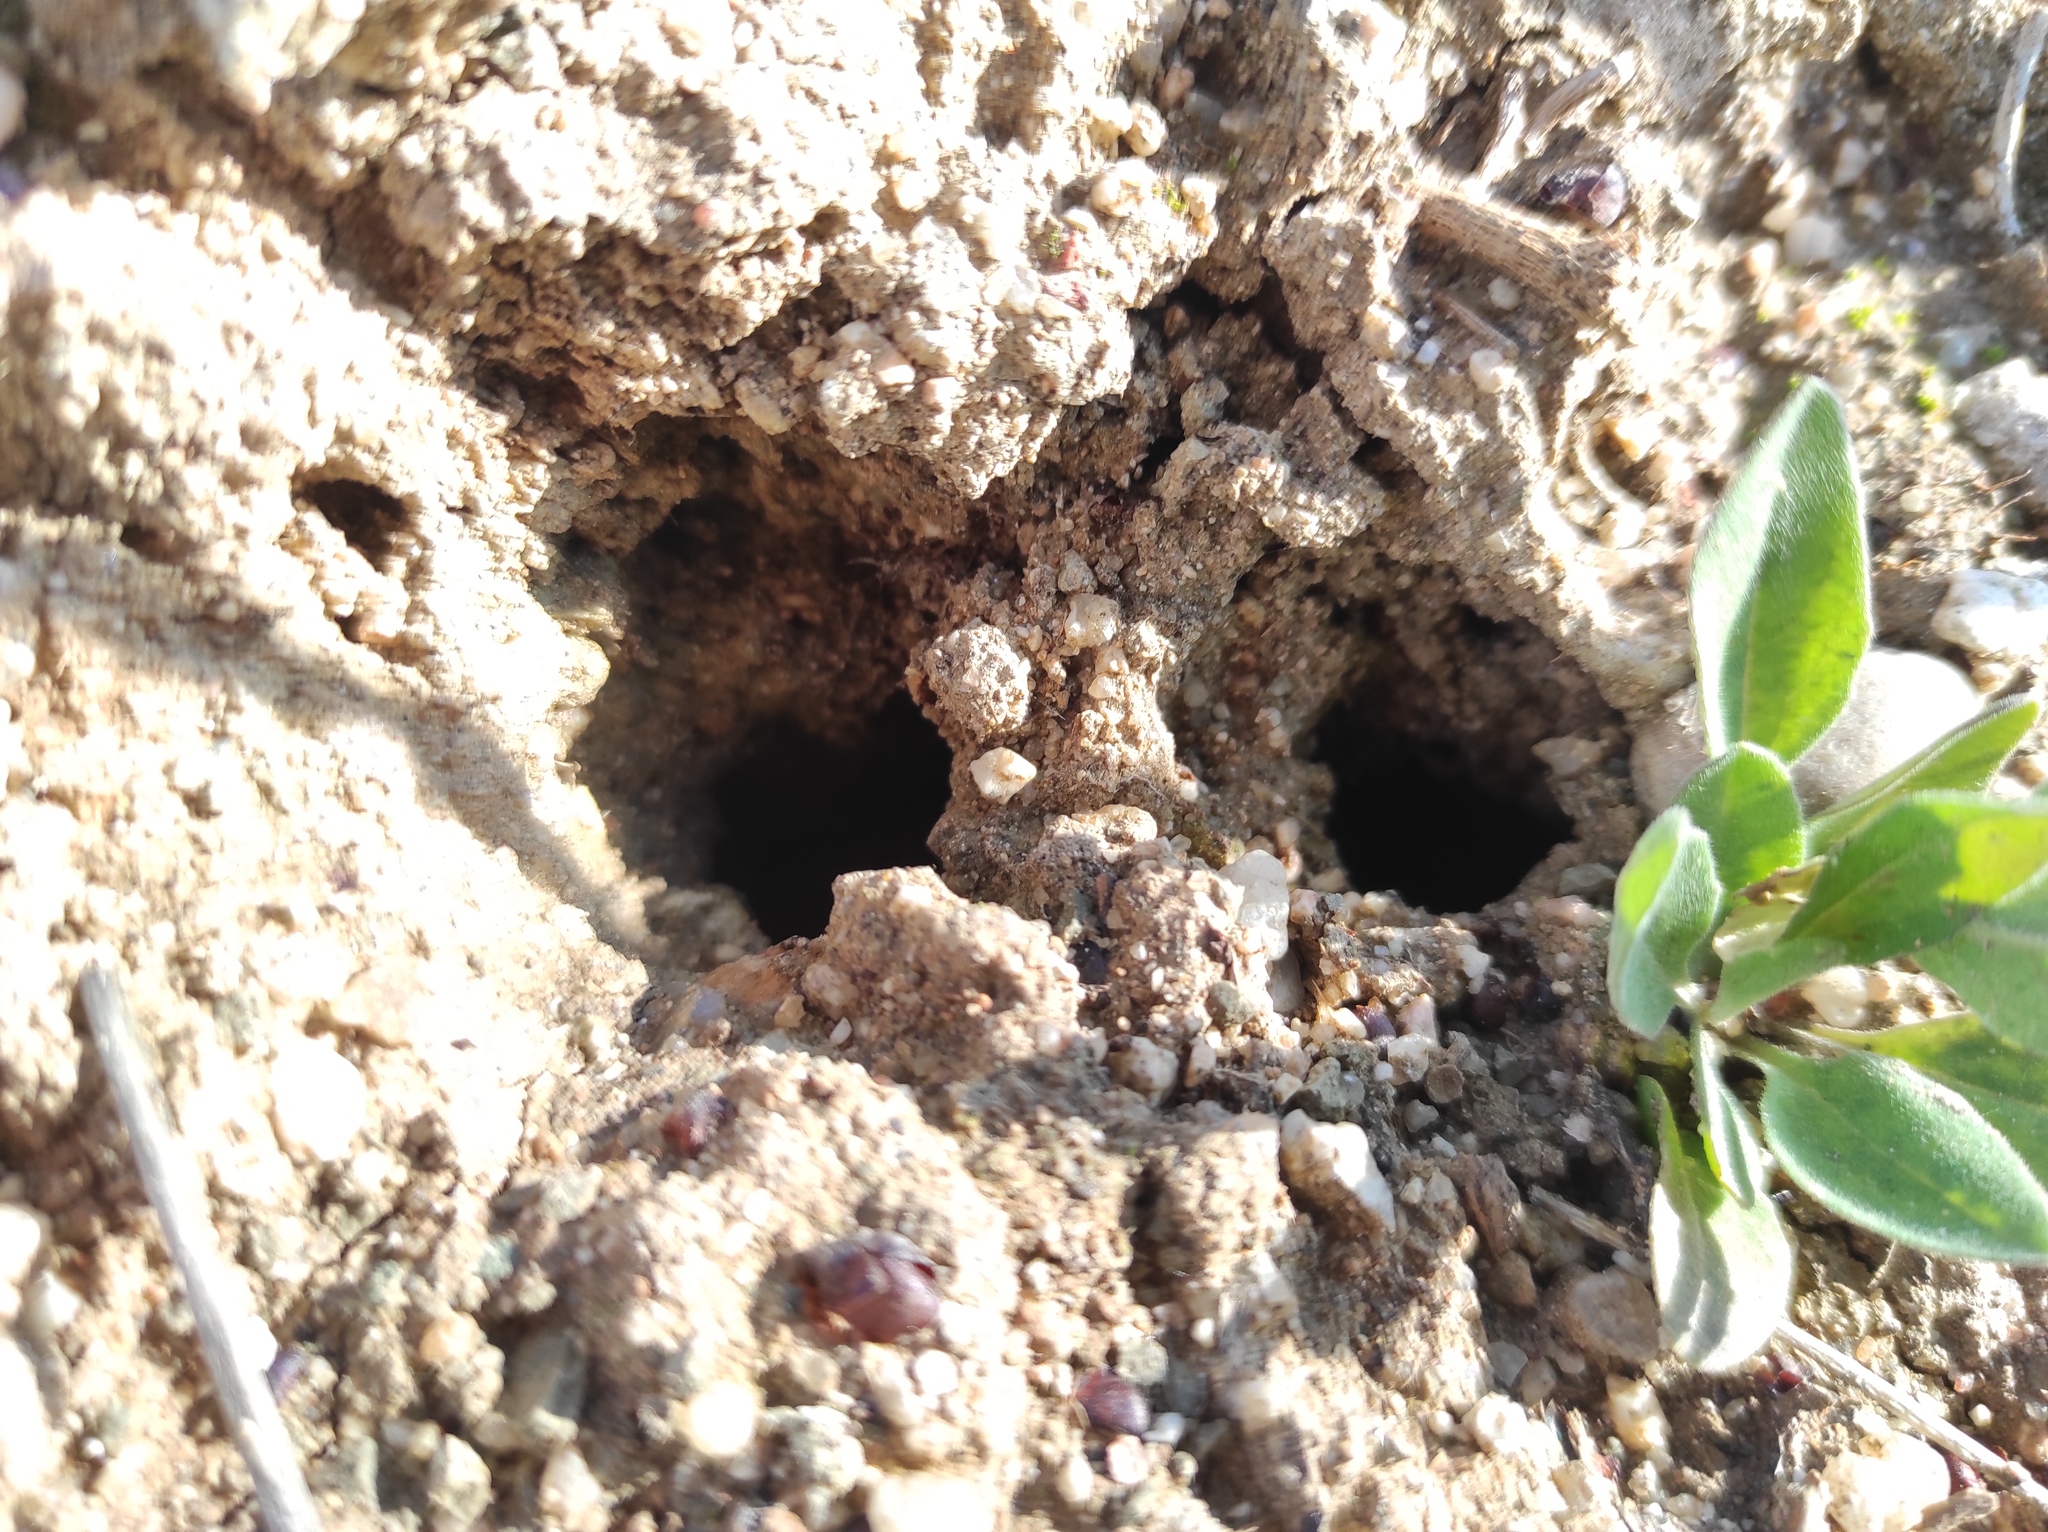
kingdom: Animalia
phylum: Arthropoda
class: Insecta
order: Orthoptera
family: Gryllotalpidae
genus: Gryllotalpa
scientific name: Gryllotalpa vineae
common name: Vineyard mole-cricket
